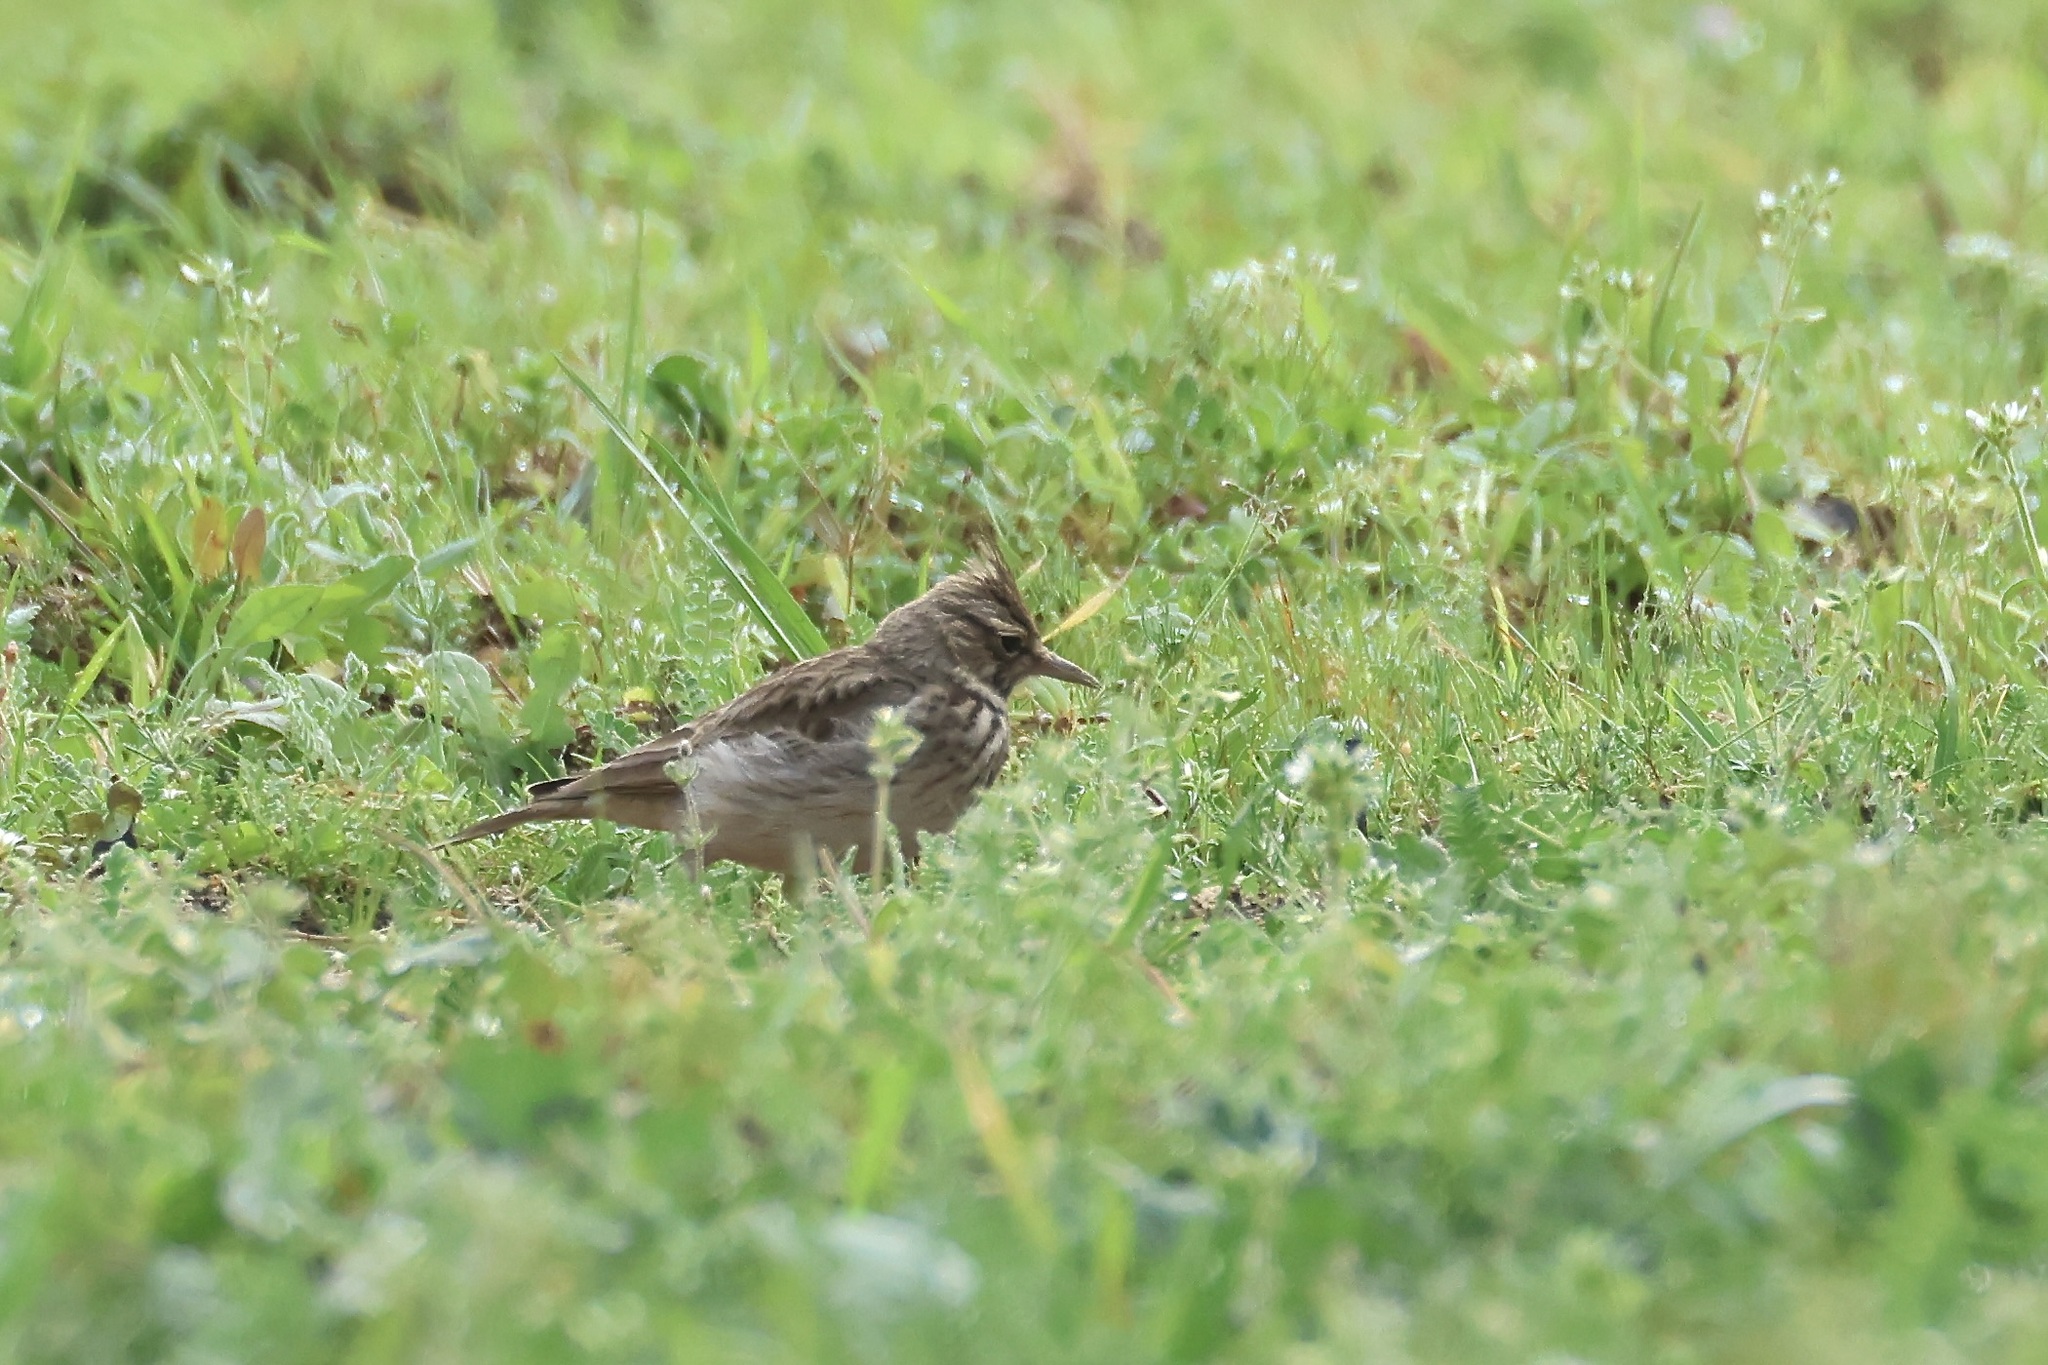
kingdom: Animalia
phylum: Chordata
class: Aves
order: Passeriformes
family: Alaudidae
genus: Galerida
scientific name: Galerida cristata
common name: Crested lark
